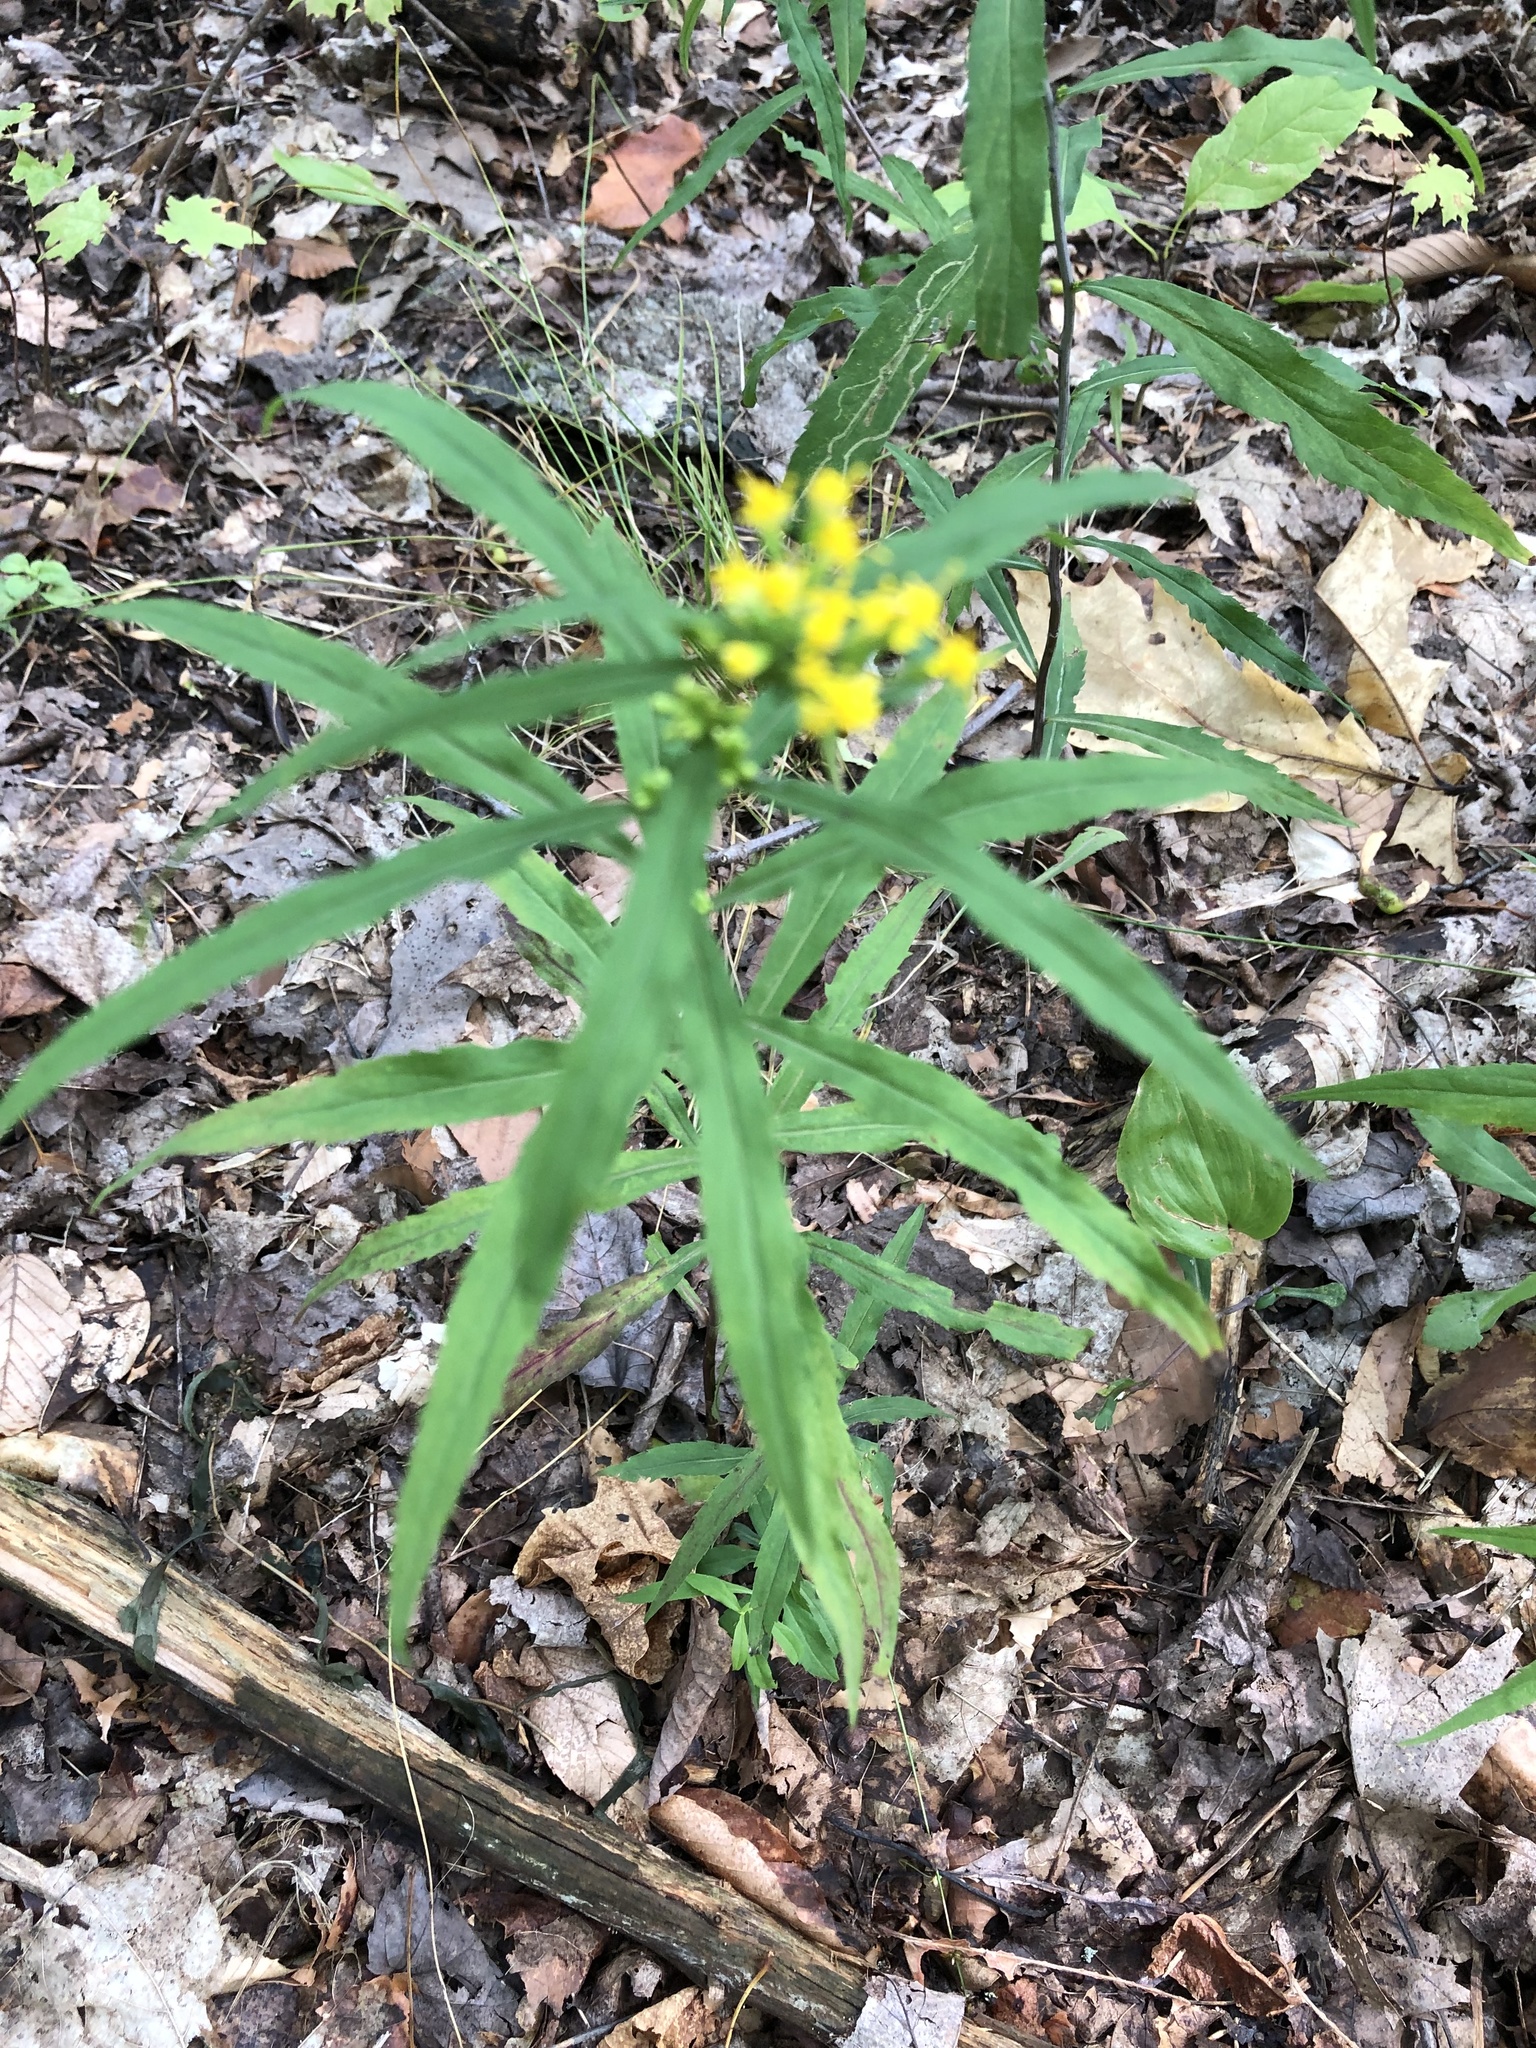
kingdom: Plantae
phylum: Tracheophyta
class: Magnoliopsida
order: Asterales
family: Asteraceae
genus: Solidago
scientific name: Solidago caesia
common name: Woodland goldenrod
